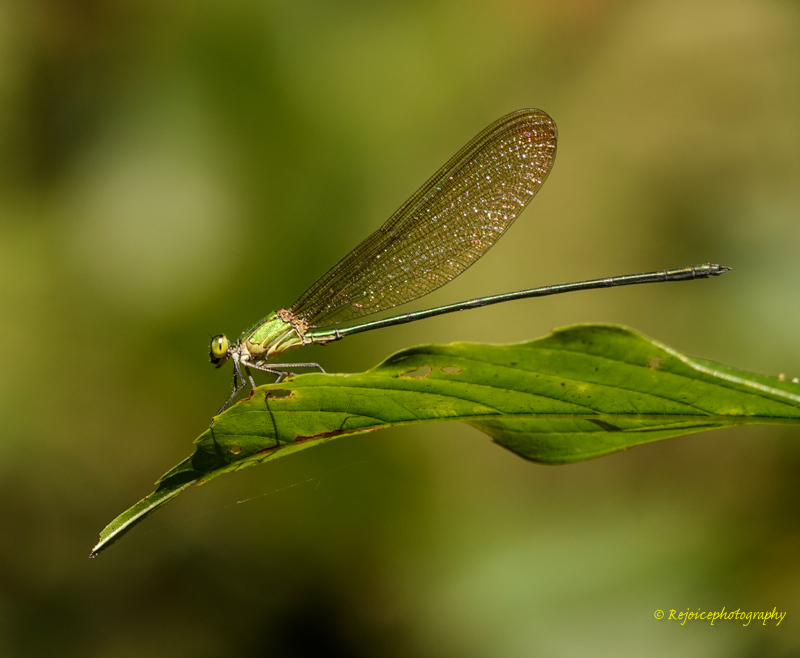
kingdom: Animalia
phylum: Arthropoda
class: Insecta
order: Odonata
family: Calopterygidae
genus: Vestalis
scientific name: Vestalis gracilis
